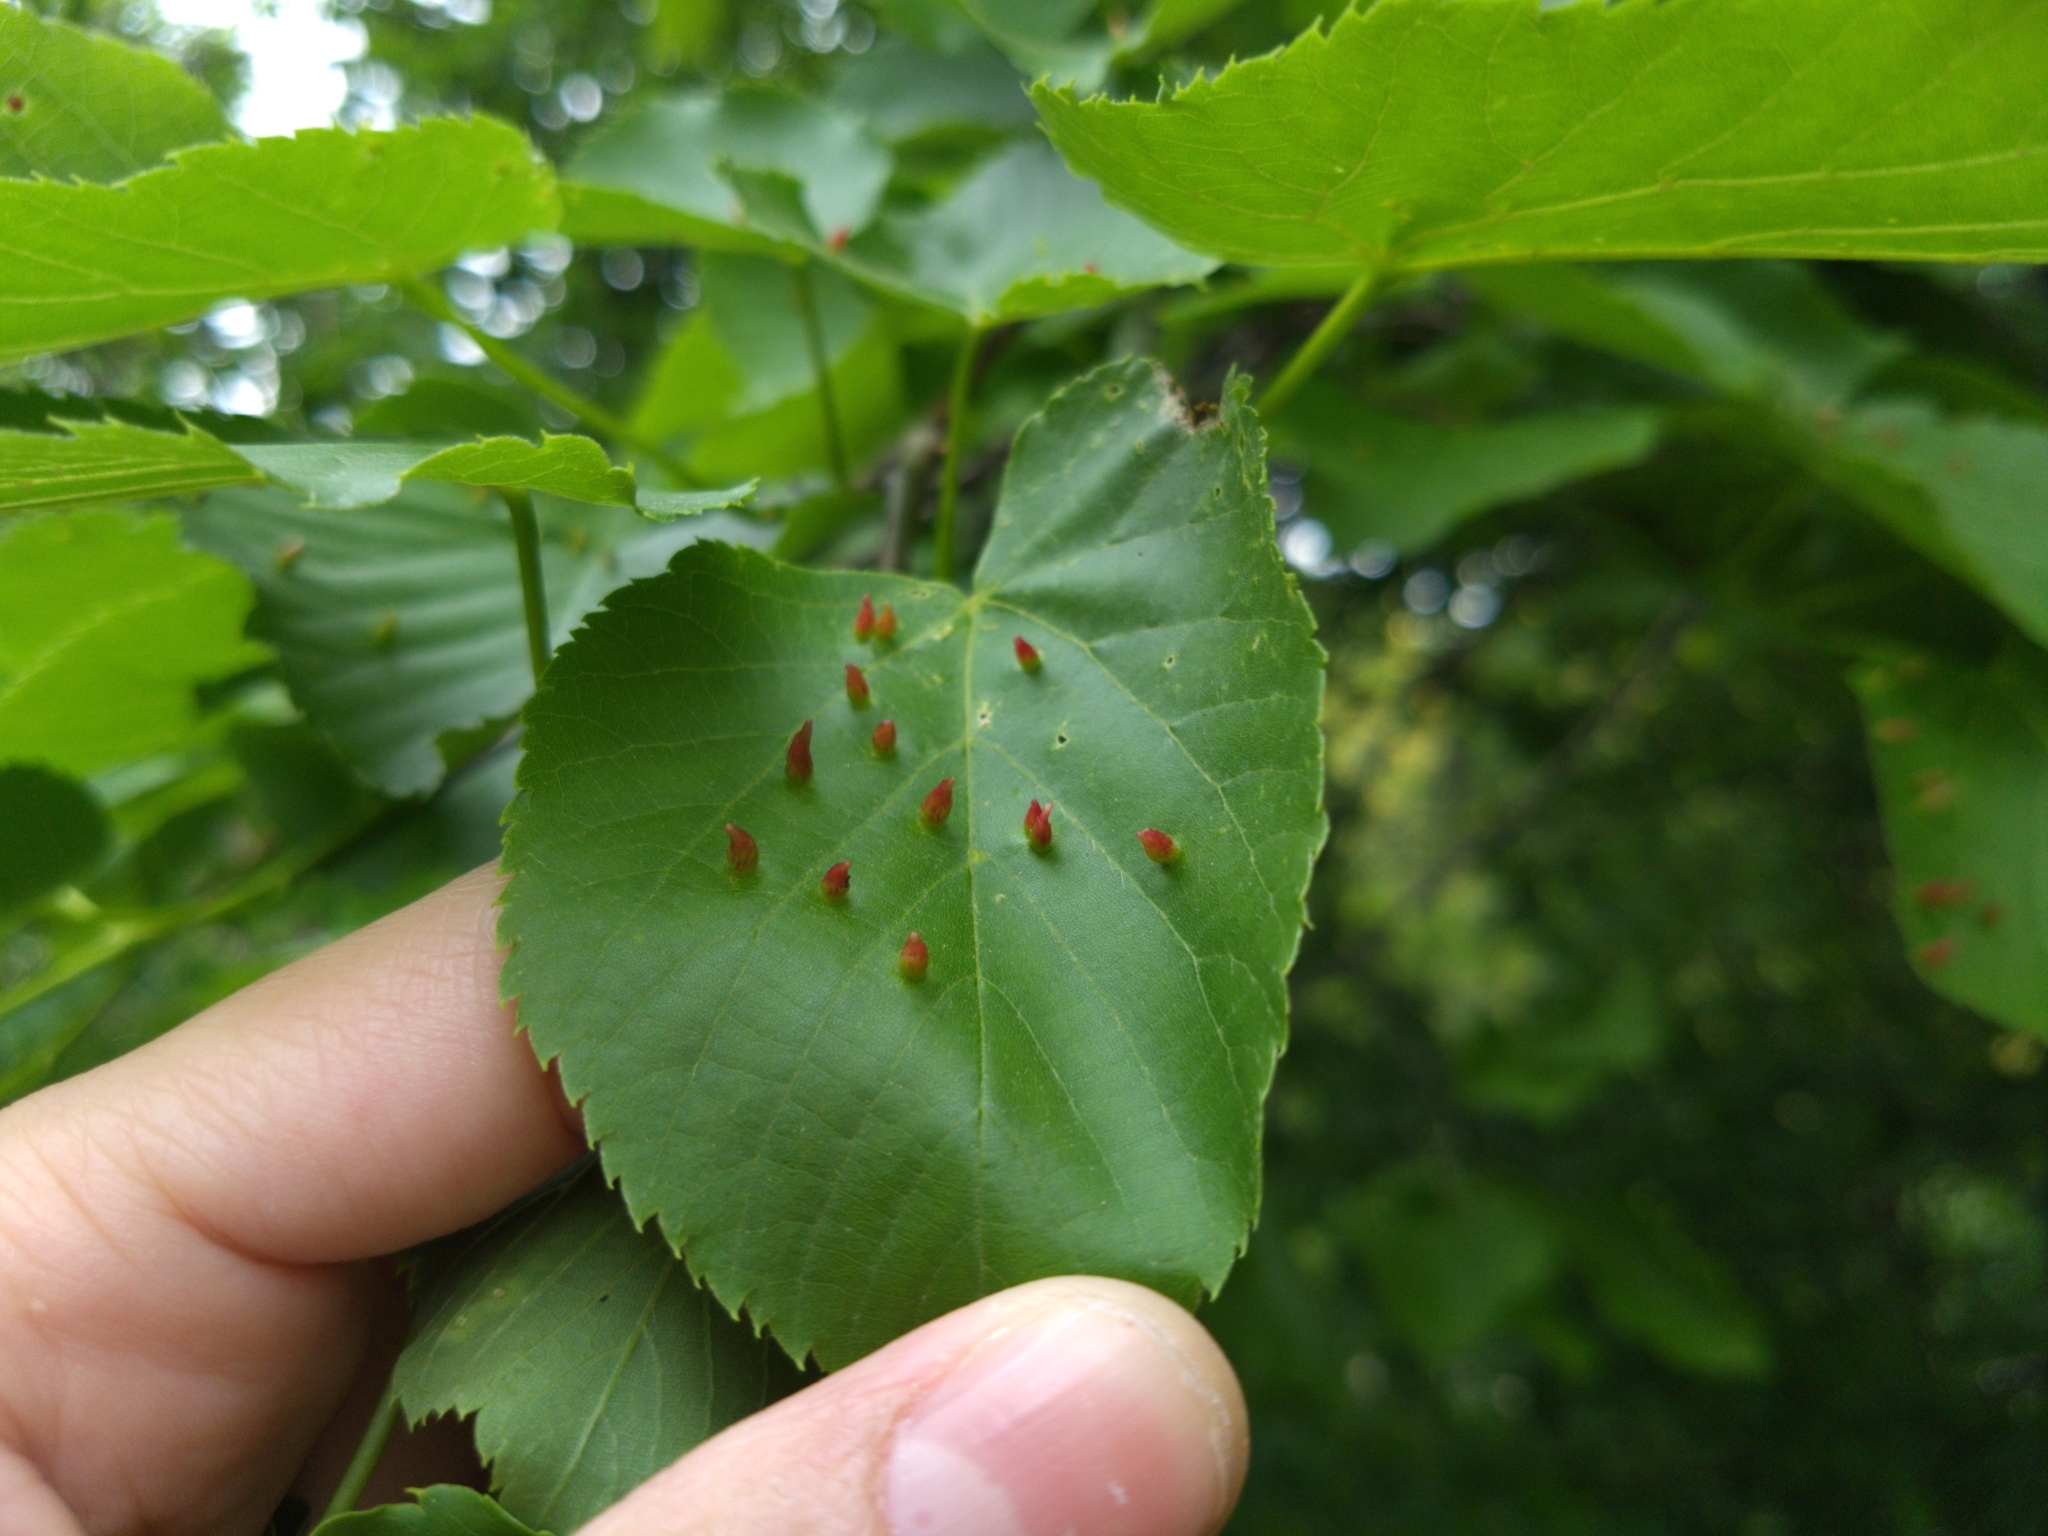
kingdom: Animalia
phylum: Arthropoda
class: Arachnida
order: Trombidiformes
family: Eriophyidae
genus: Eriophyes
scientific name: Eriophyes tiliae
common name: Red nail gall mite
